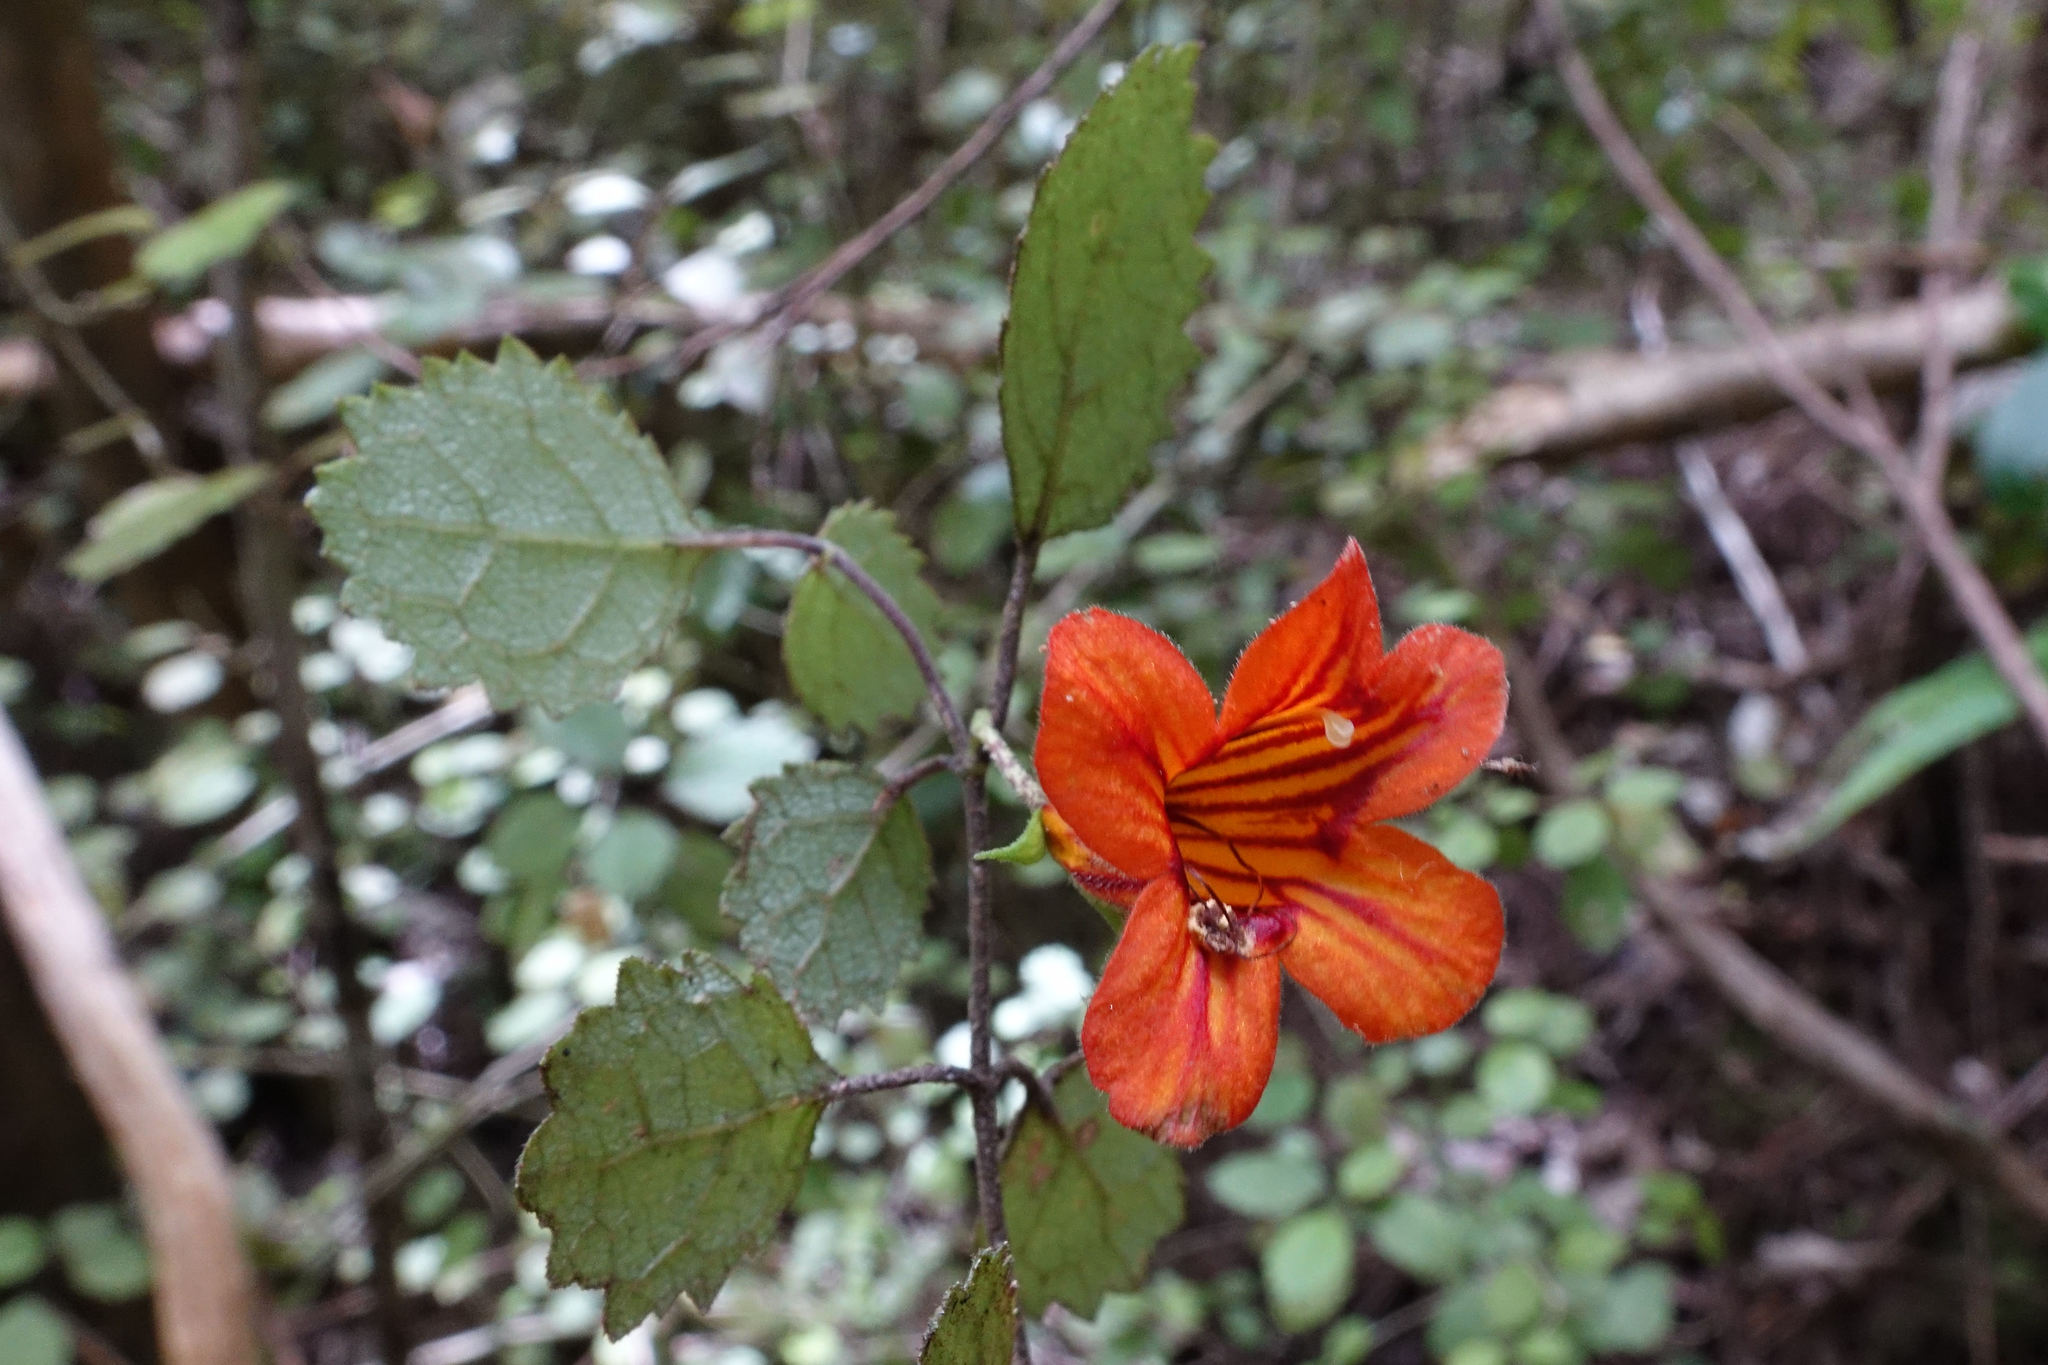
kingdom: Plantae
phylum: Tracheophyta
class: Magnoliopsida
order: Lamiales
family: Gesneriaceae
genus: Rhabdothamnus
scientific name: Rhabdothamnus solandri
